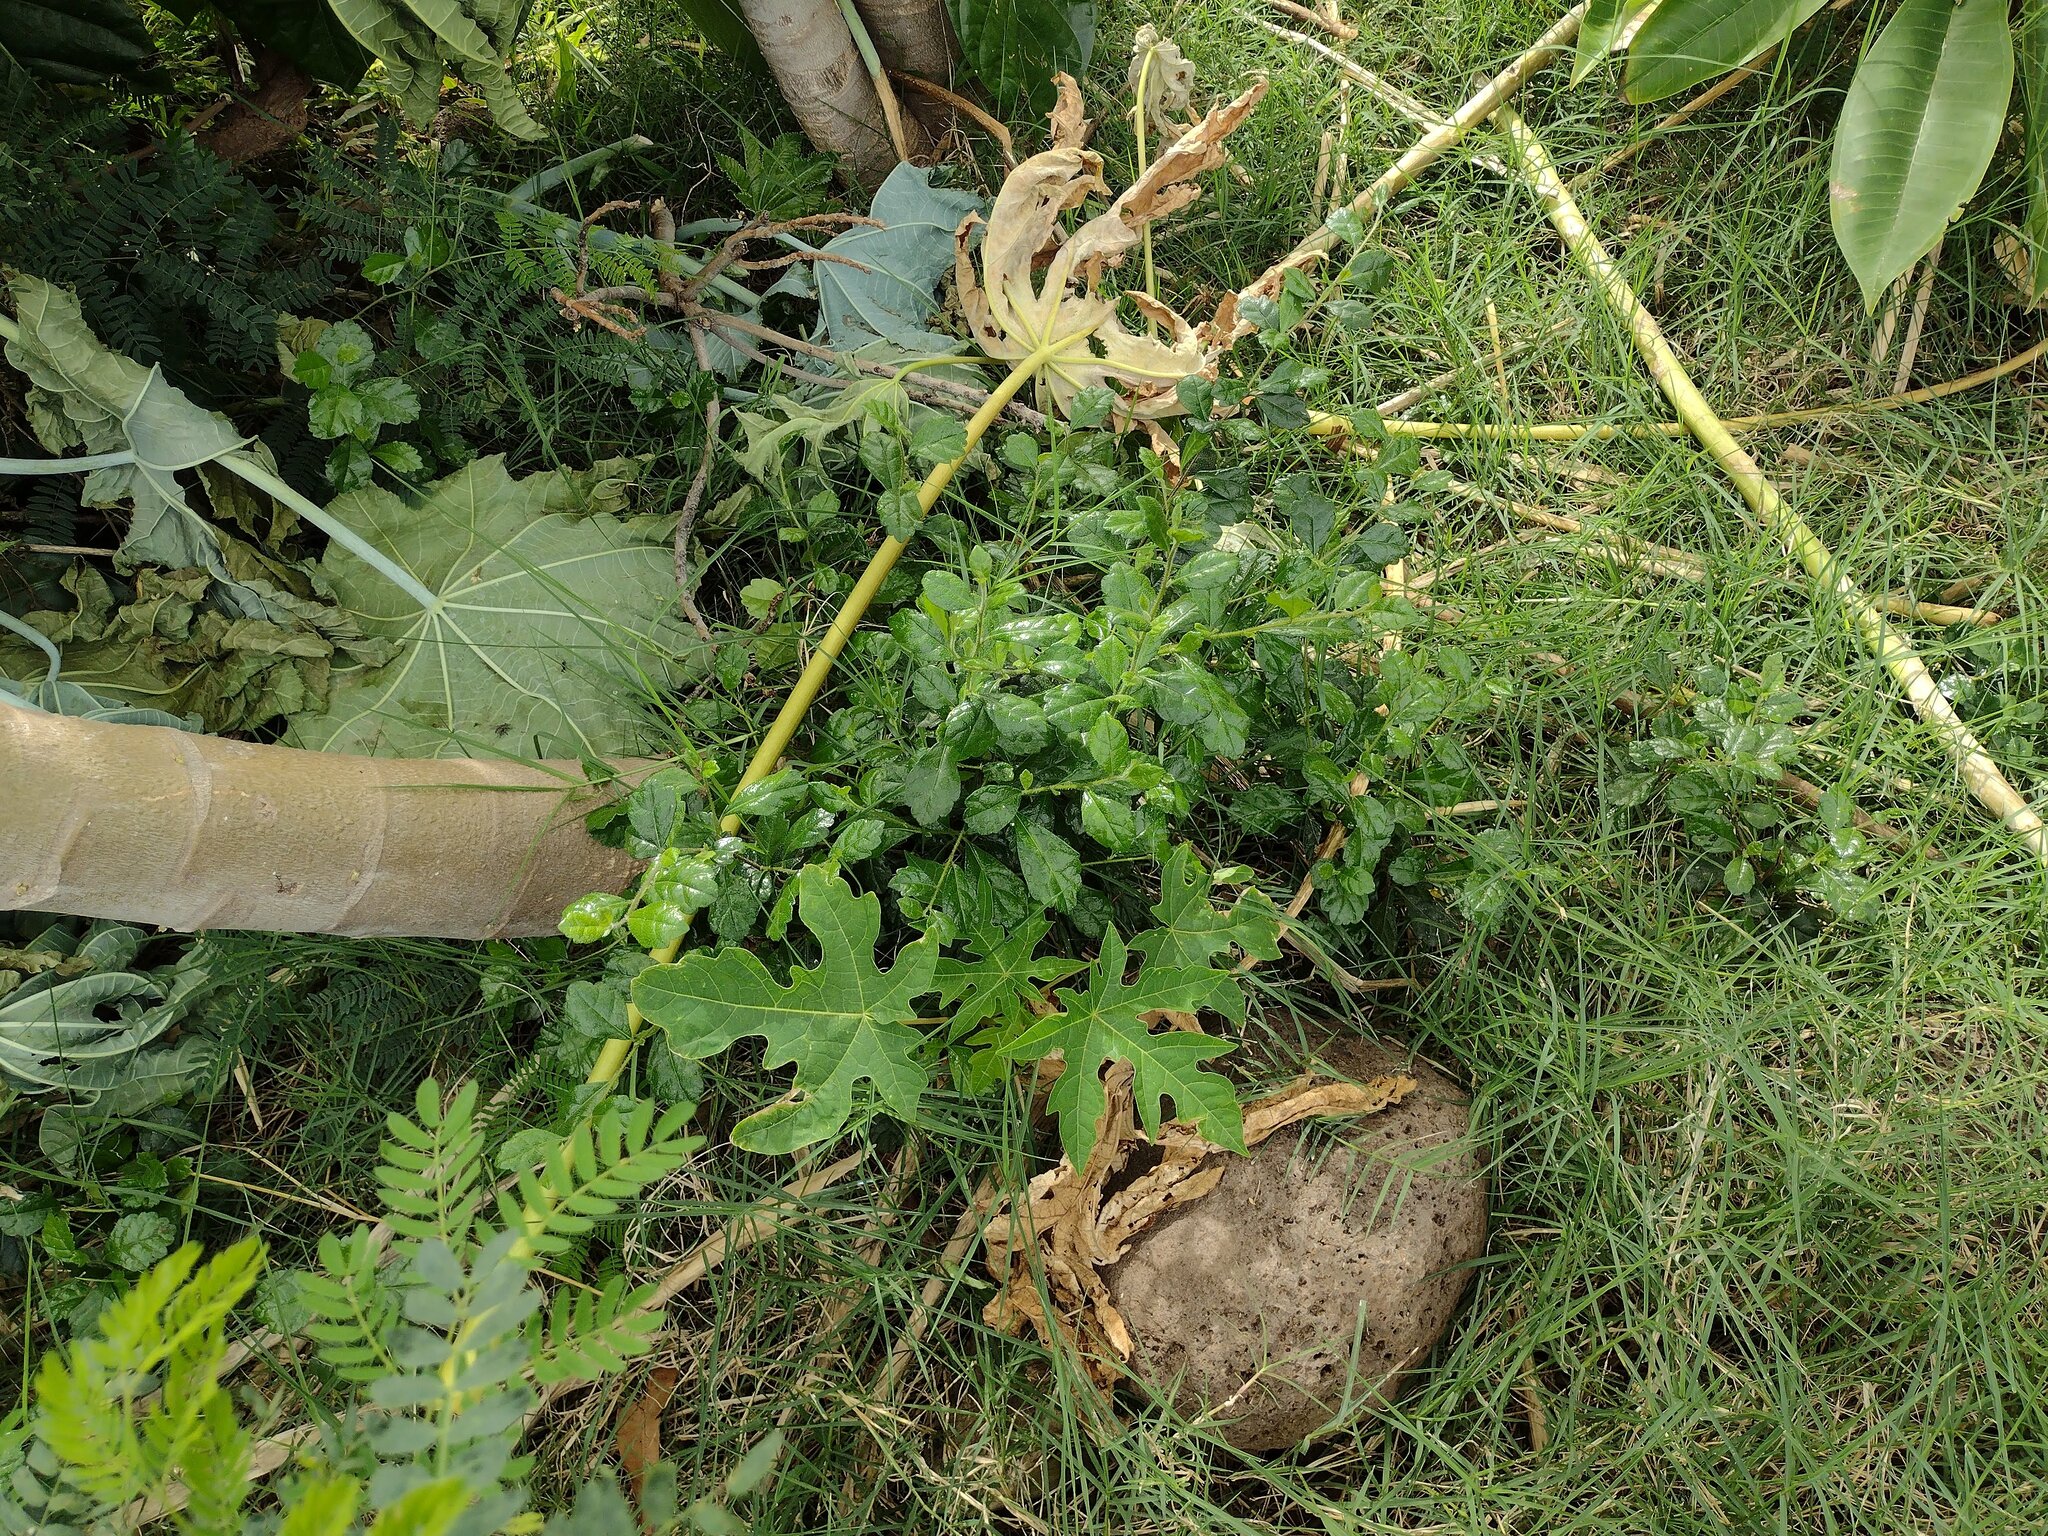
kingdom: Plantae
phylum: Tracheophyta
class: Magnoliopsida
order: Boraginales
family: Ehretiaceae
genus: Ehretia
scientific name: Ehretia microphylla
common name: Fukien-tea
